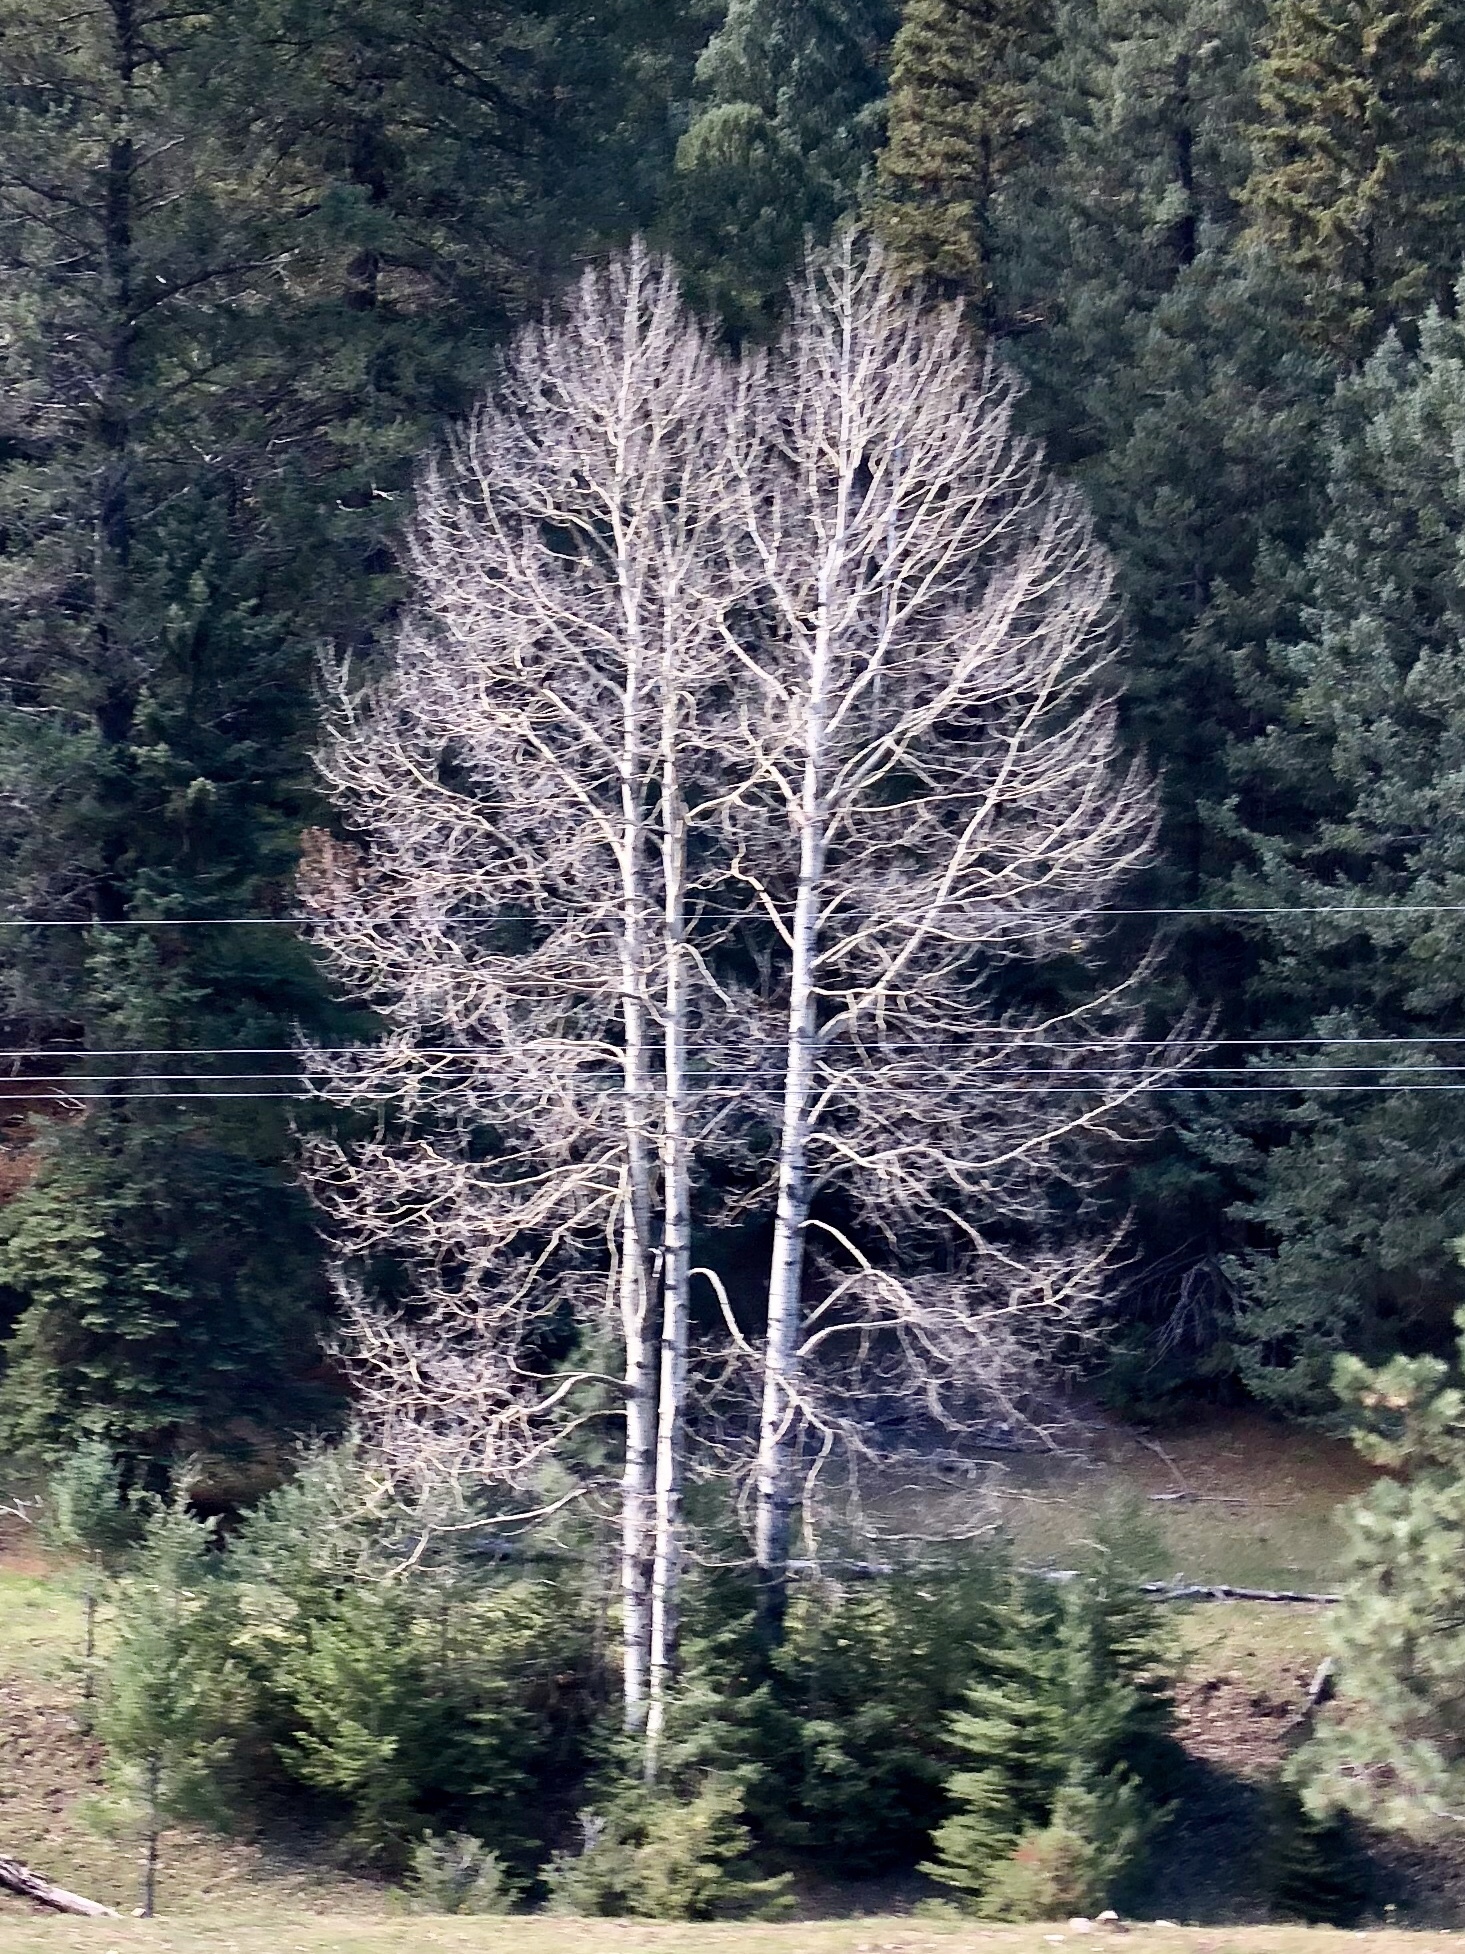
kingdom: Plantae
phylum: Tracheophyta
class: Magnoliopsida
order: Malpighiales
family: Salicaceae
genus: Populus
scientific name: Populus tremuloides
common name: Quaking aspen
